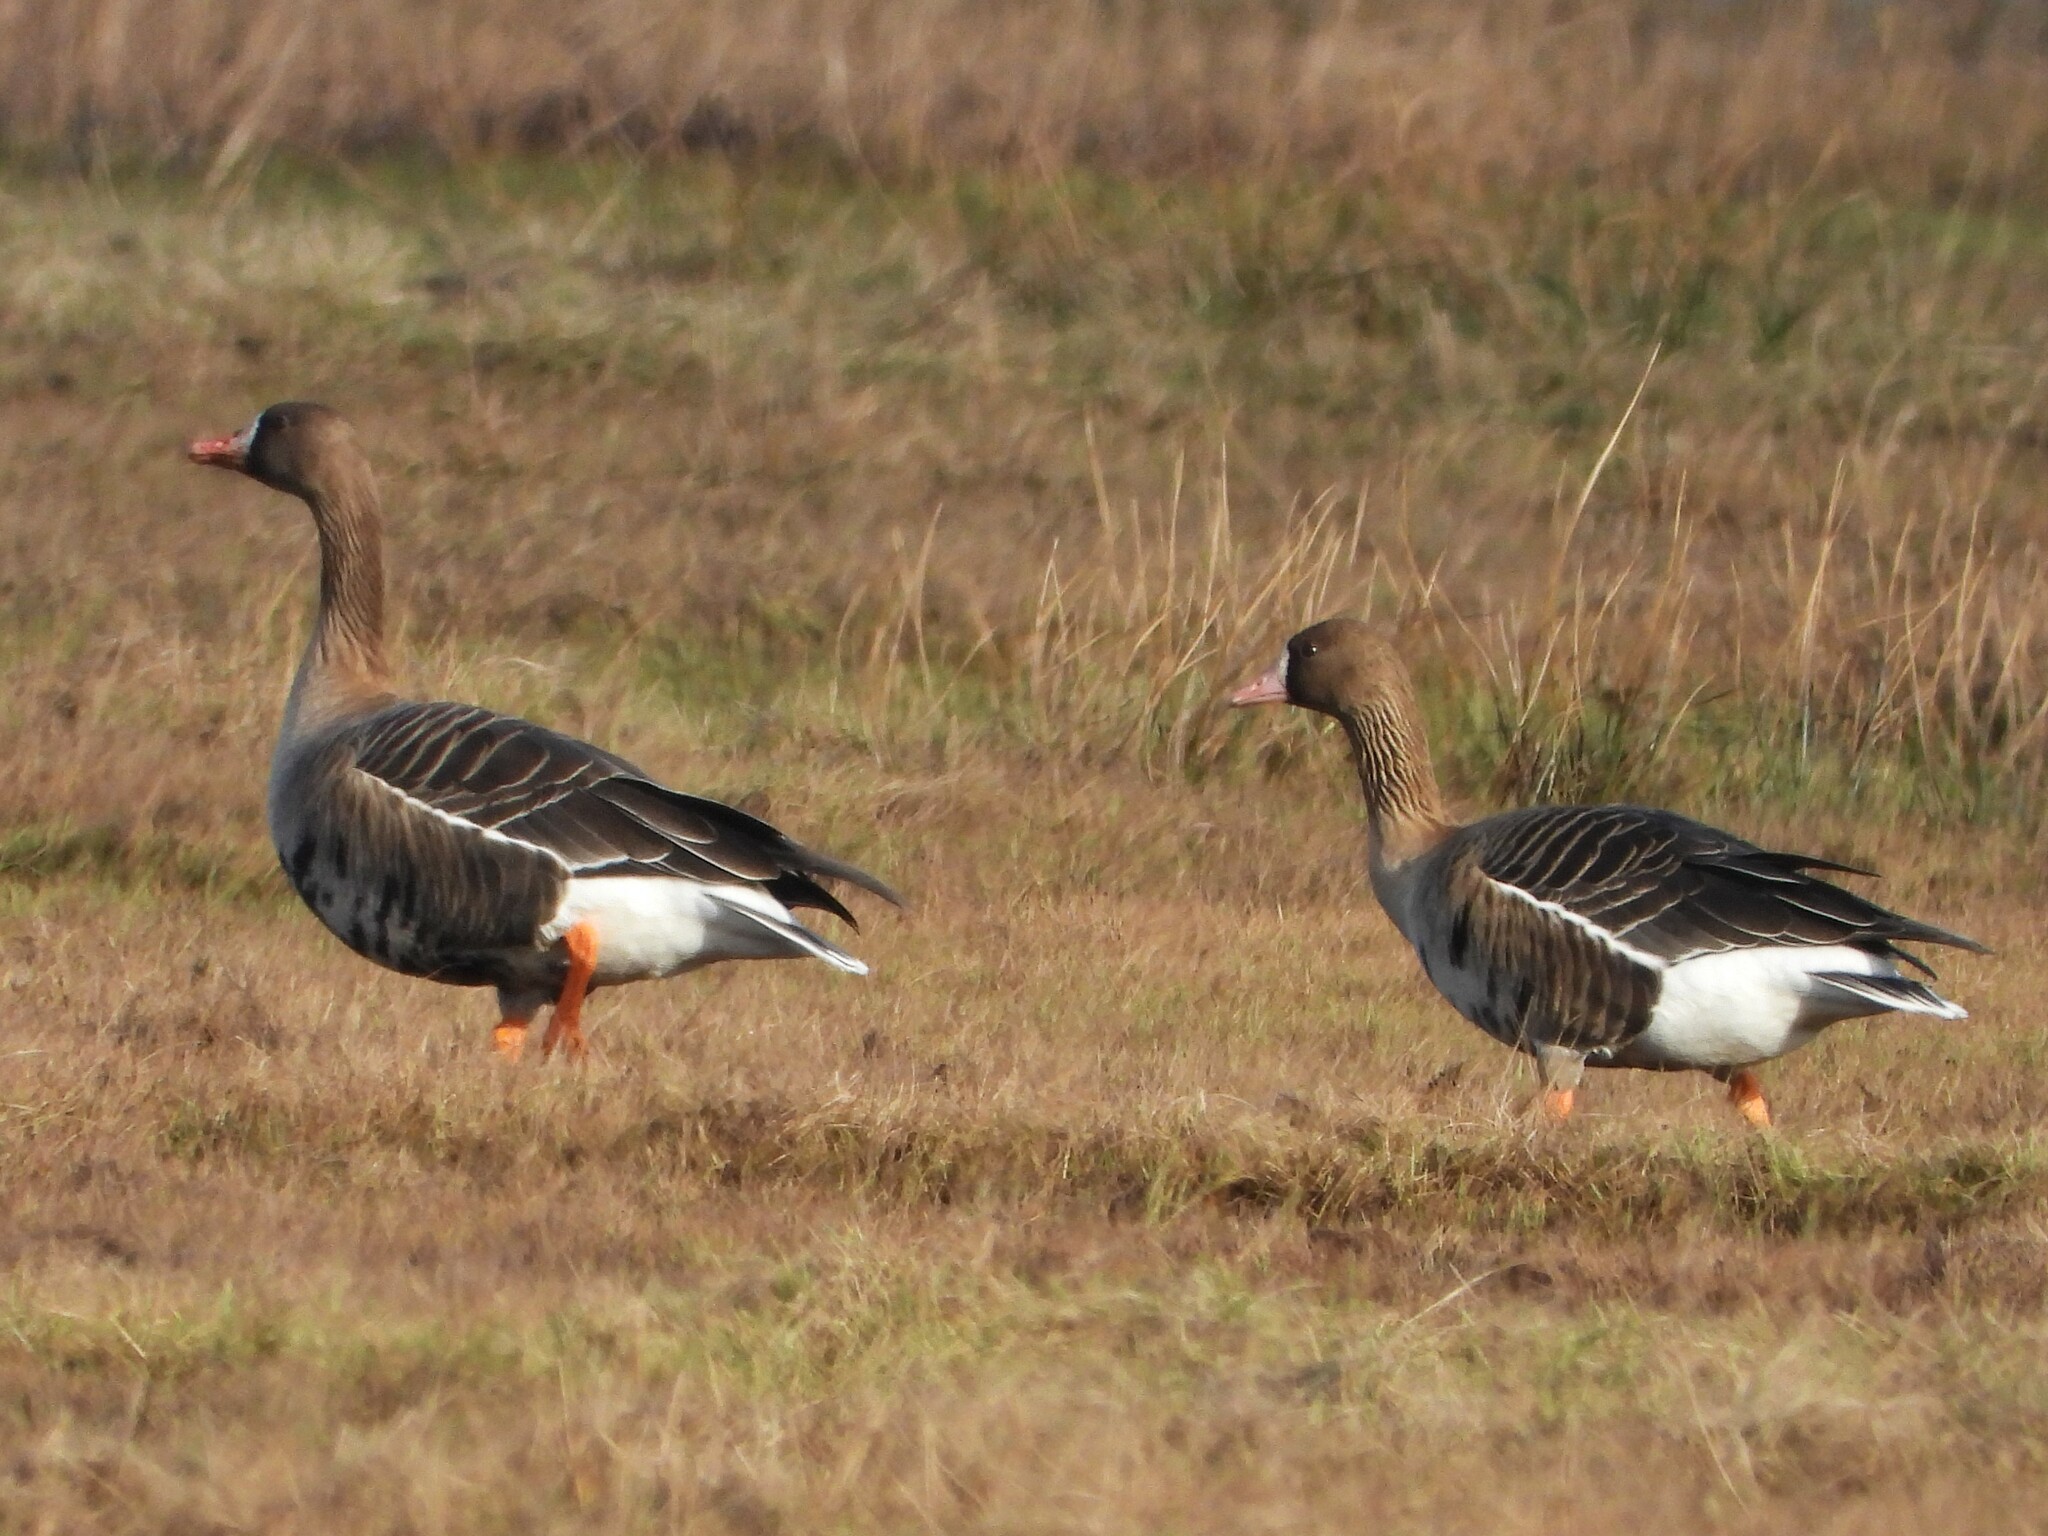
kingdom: Animalia
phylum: Chordata
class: Aves
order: Anseriformes
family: Anatidae
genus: Anser
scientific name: Anser albifrons
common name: Greater white-fronted goose
